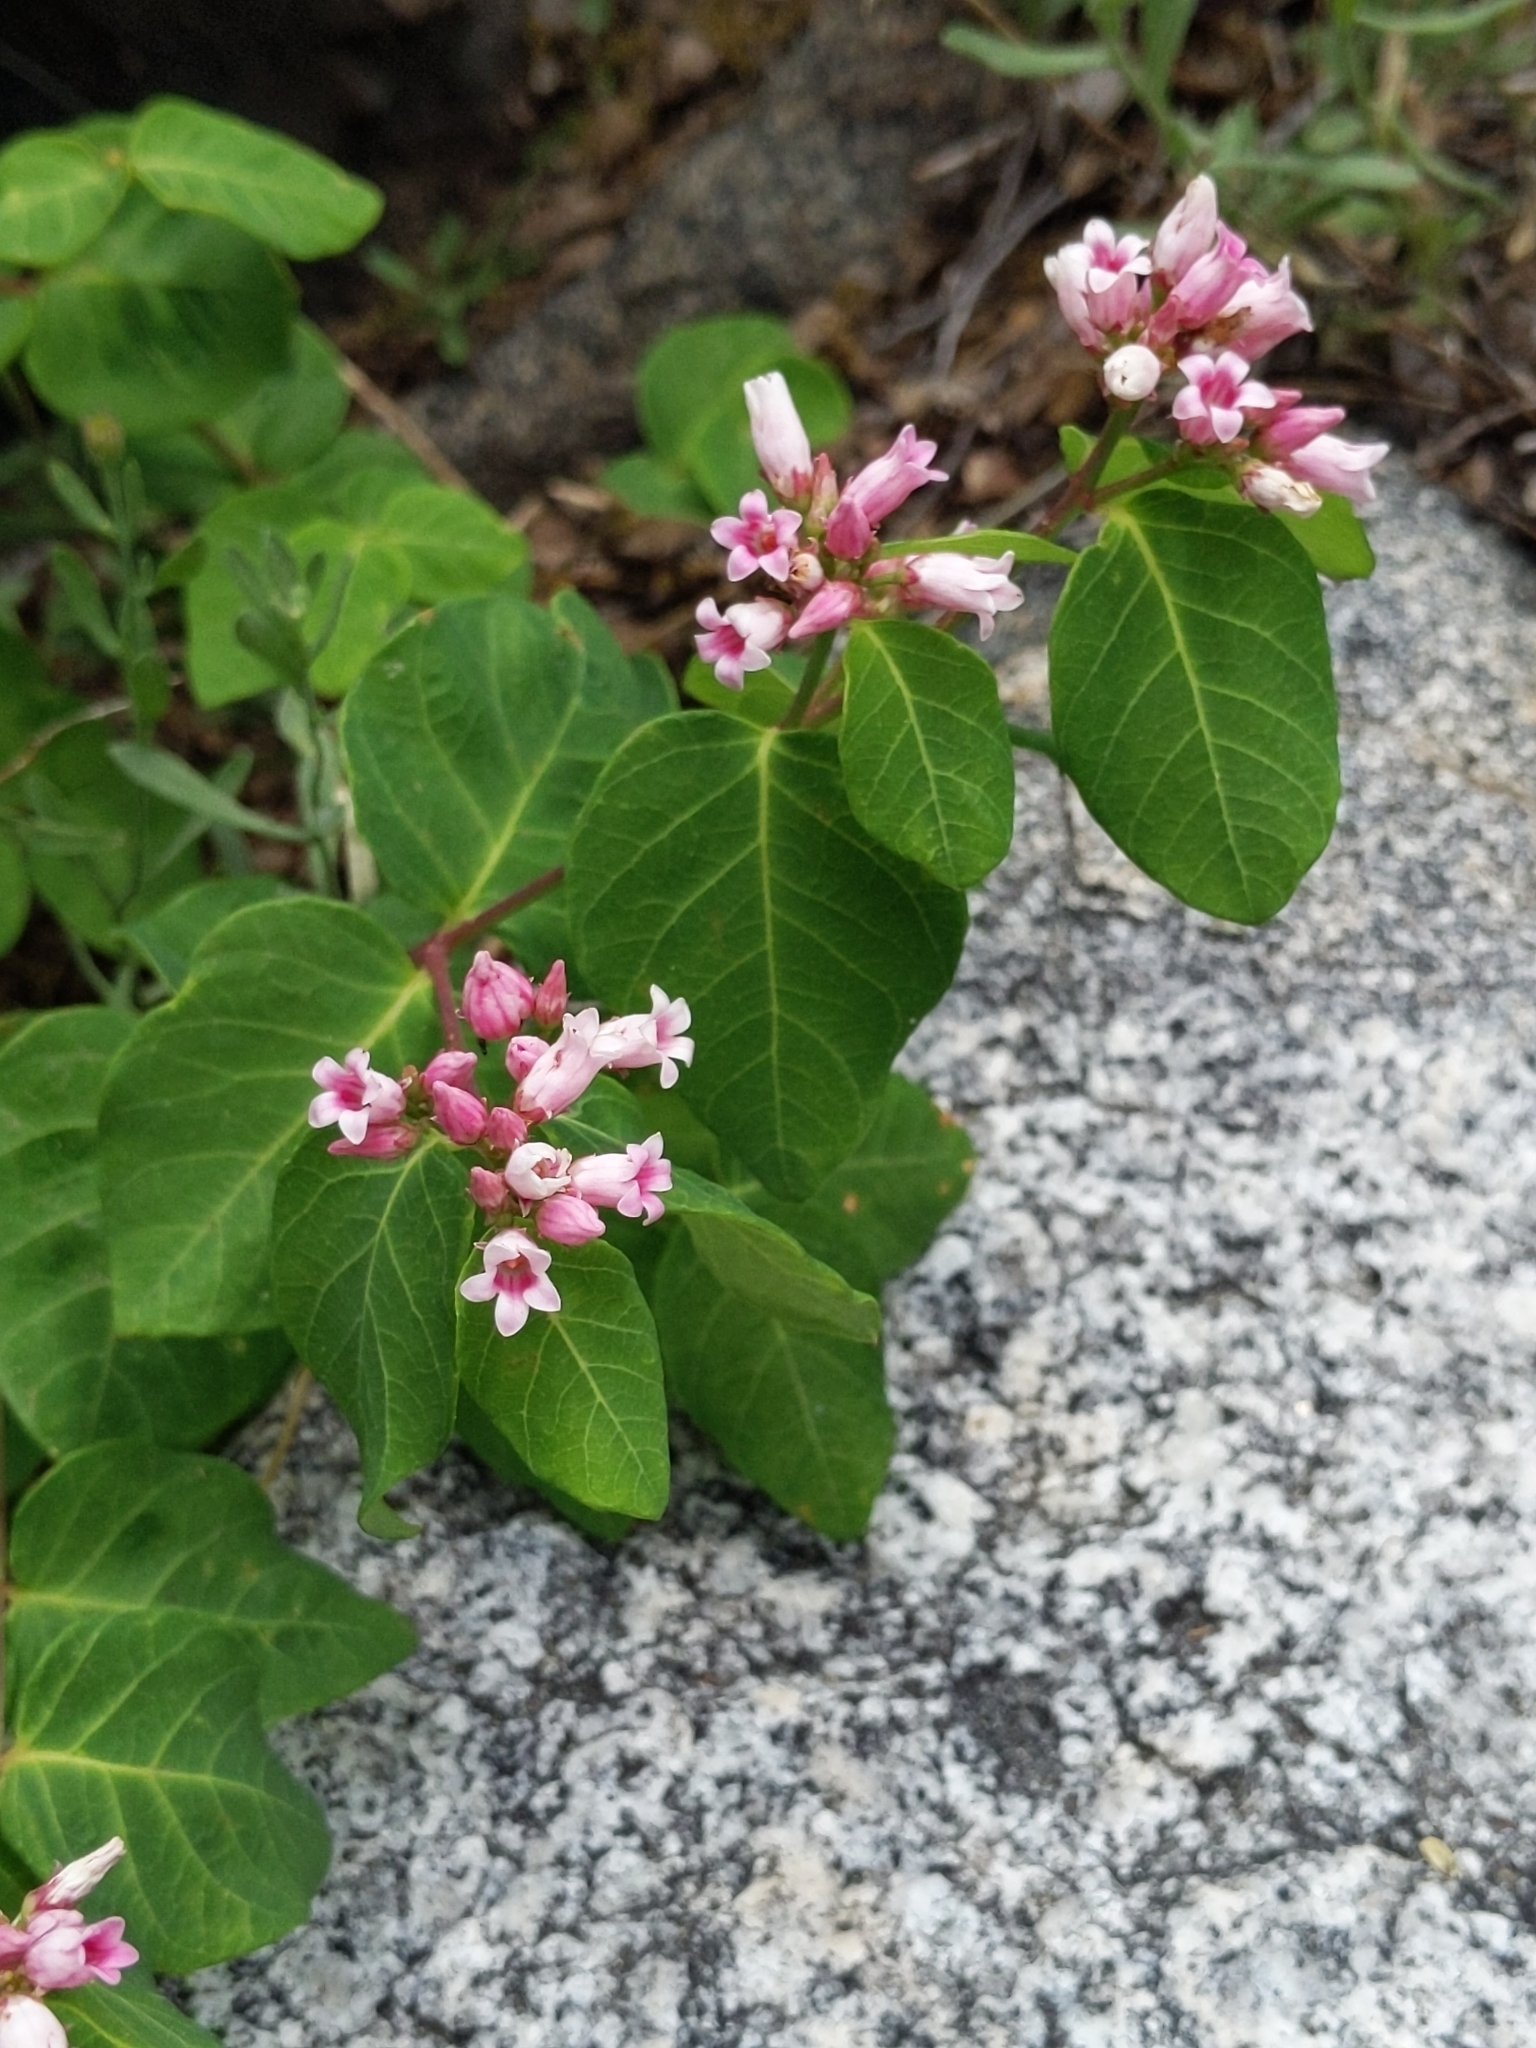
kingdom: Plantae
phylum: Tracheophyta
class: Magnoliopsida
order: Gentianales
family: Apocynaceae
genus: Apocynum
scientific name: Apocynum androsaemifolium
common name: Spreading dogbane
